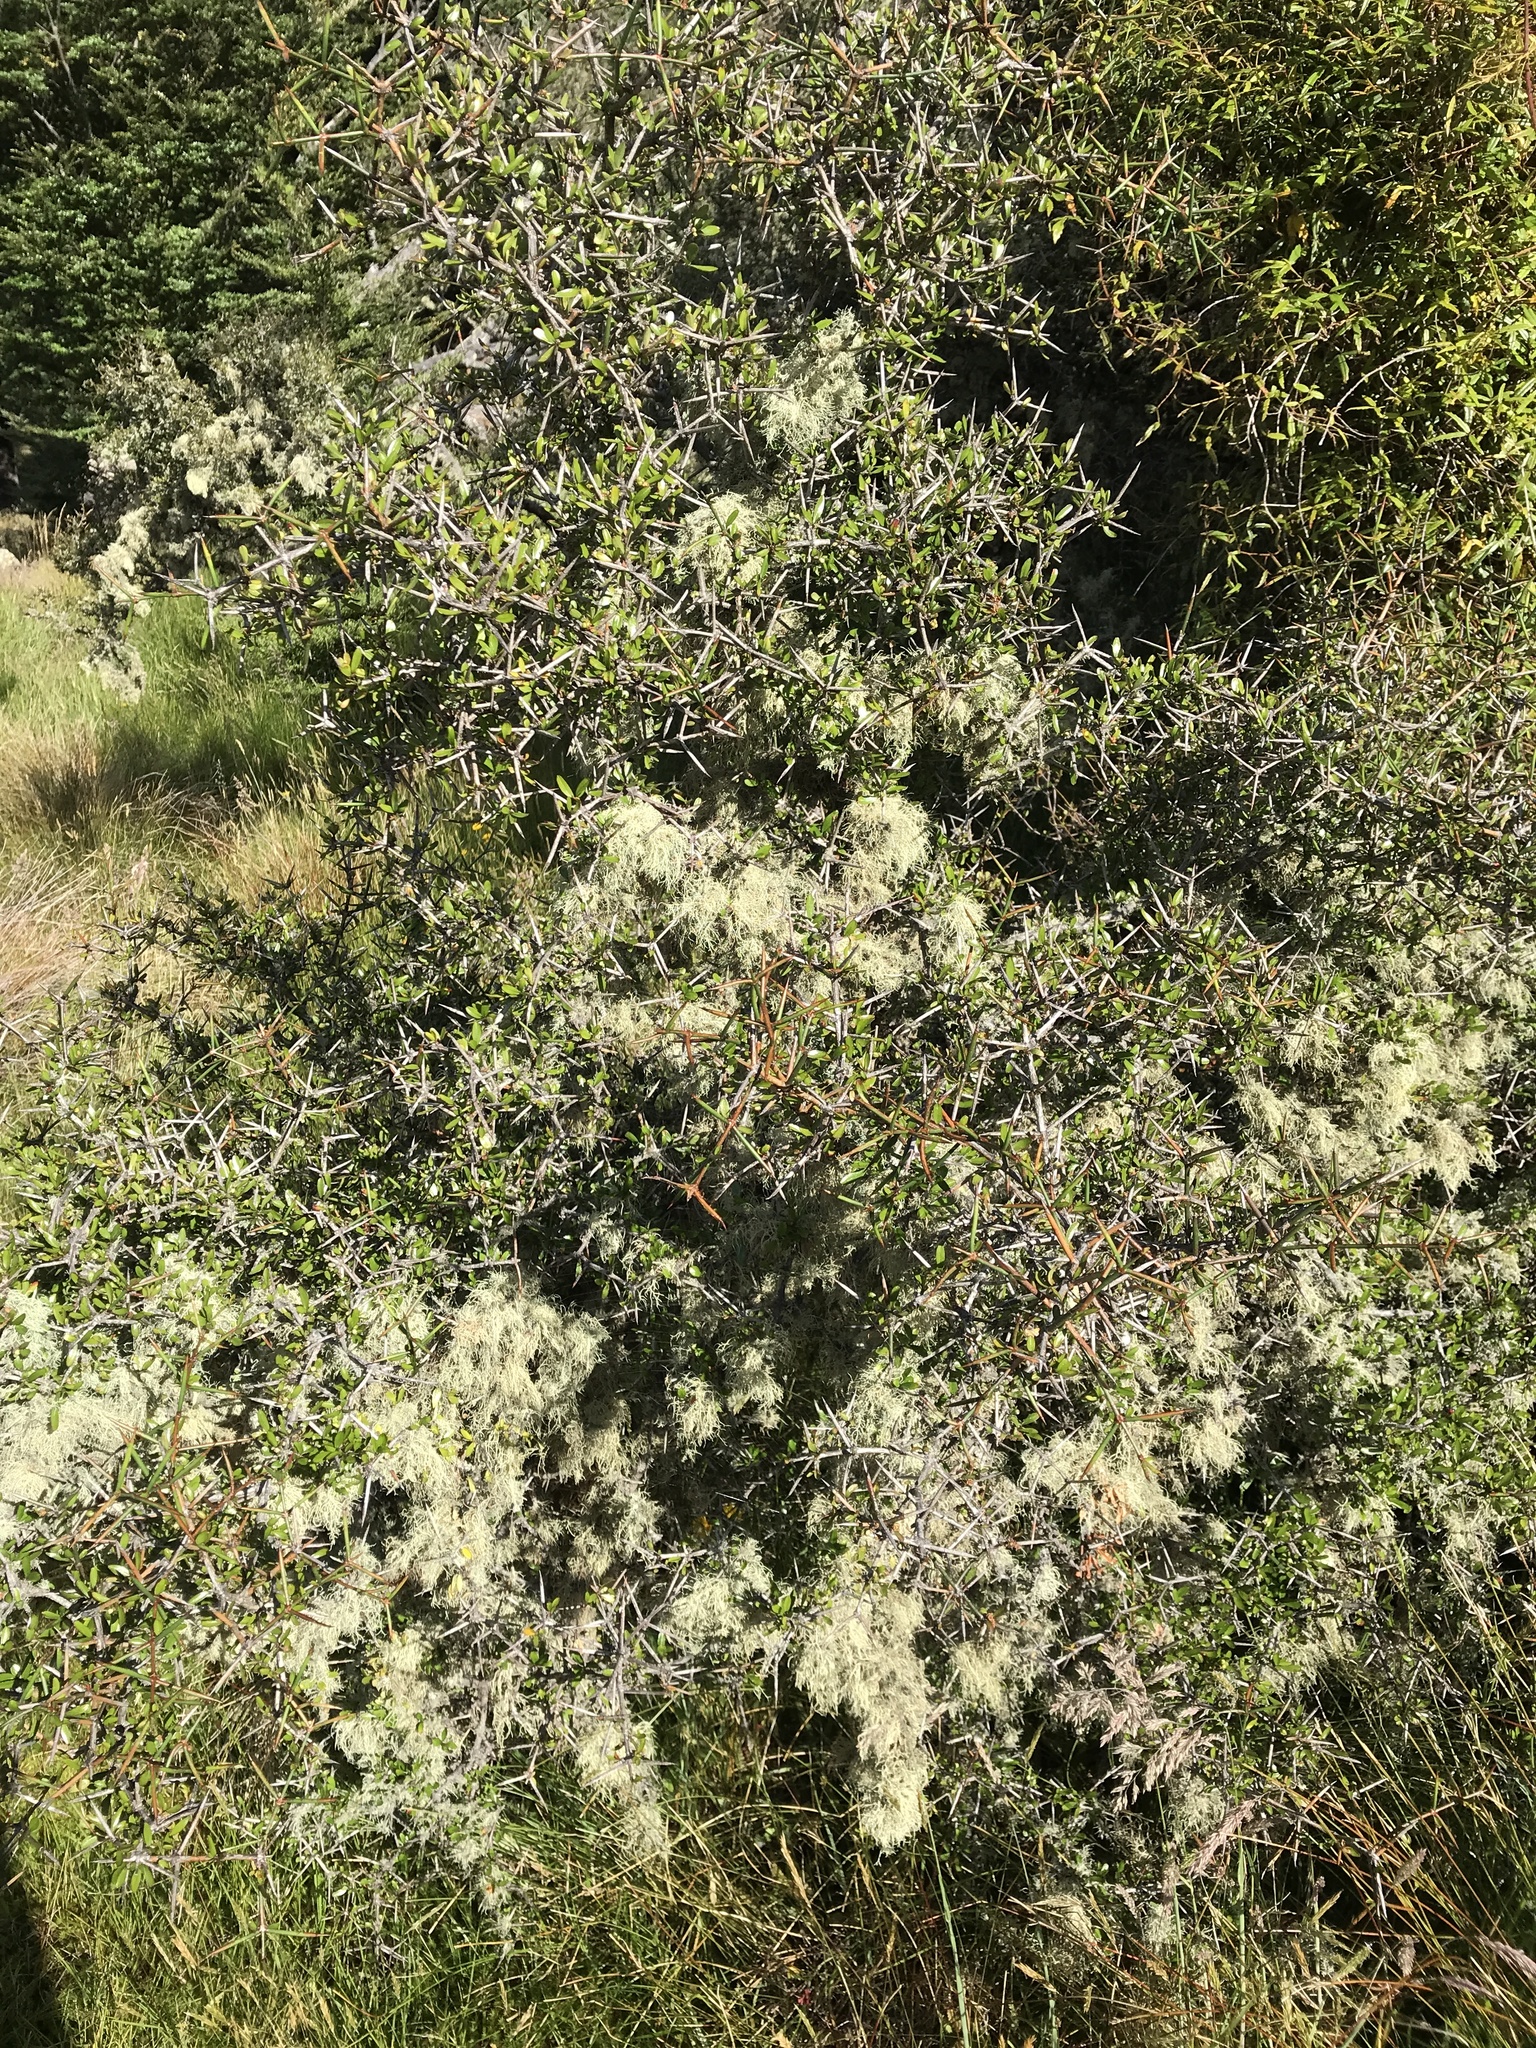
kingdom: Plantae
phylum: Tracheophyta
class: Magnoliopsida
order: Rosales
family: Rhamnaceae
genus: Discaria
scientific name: Discaria toumatou
